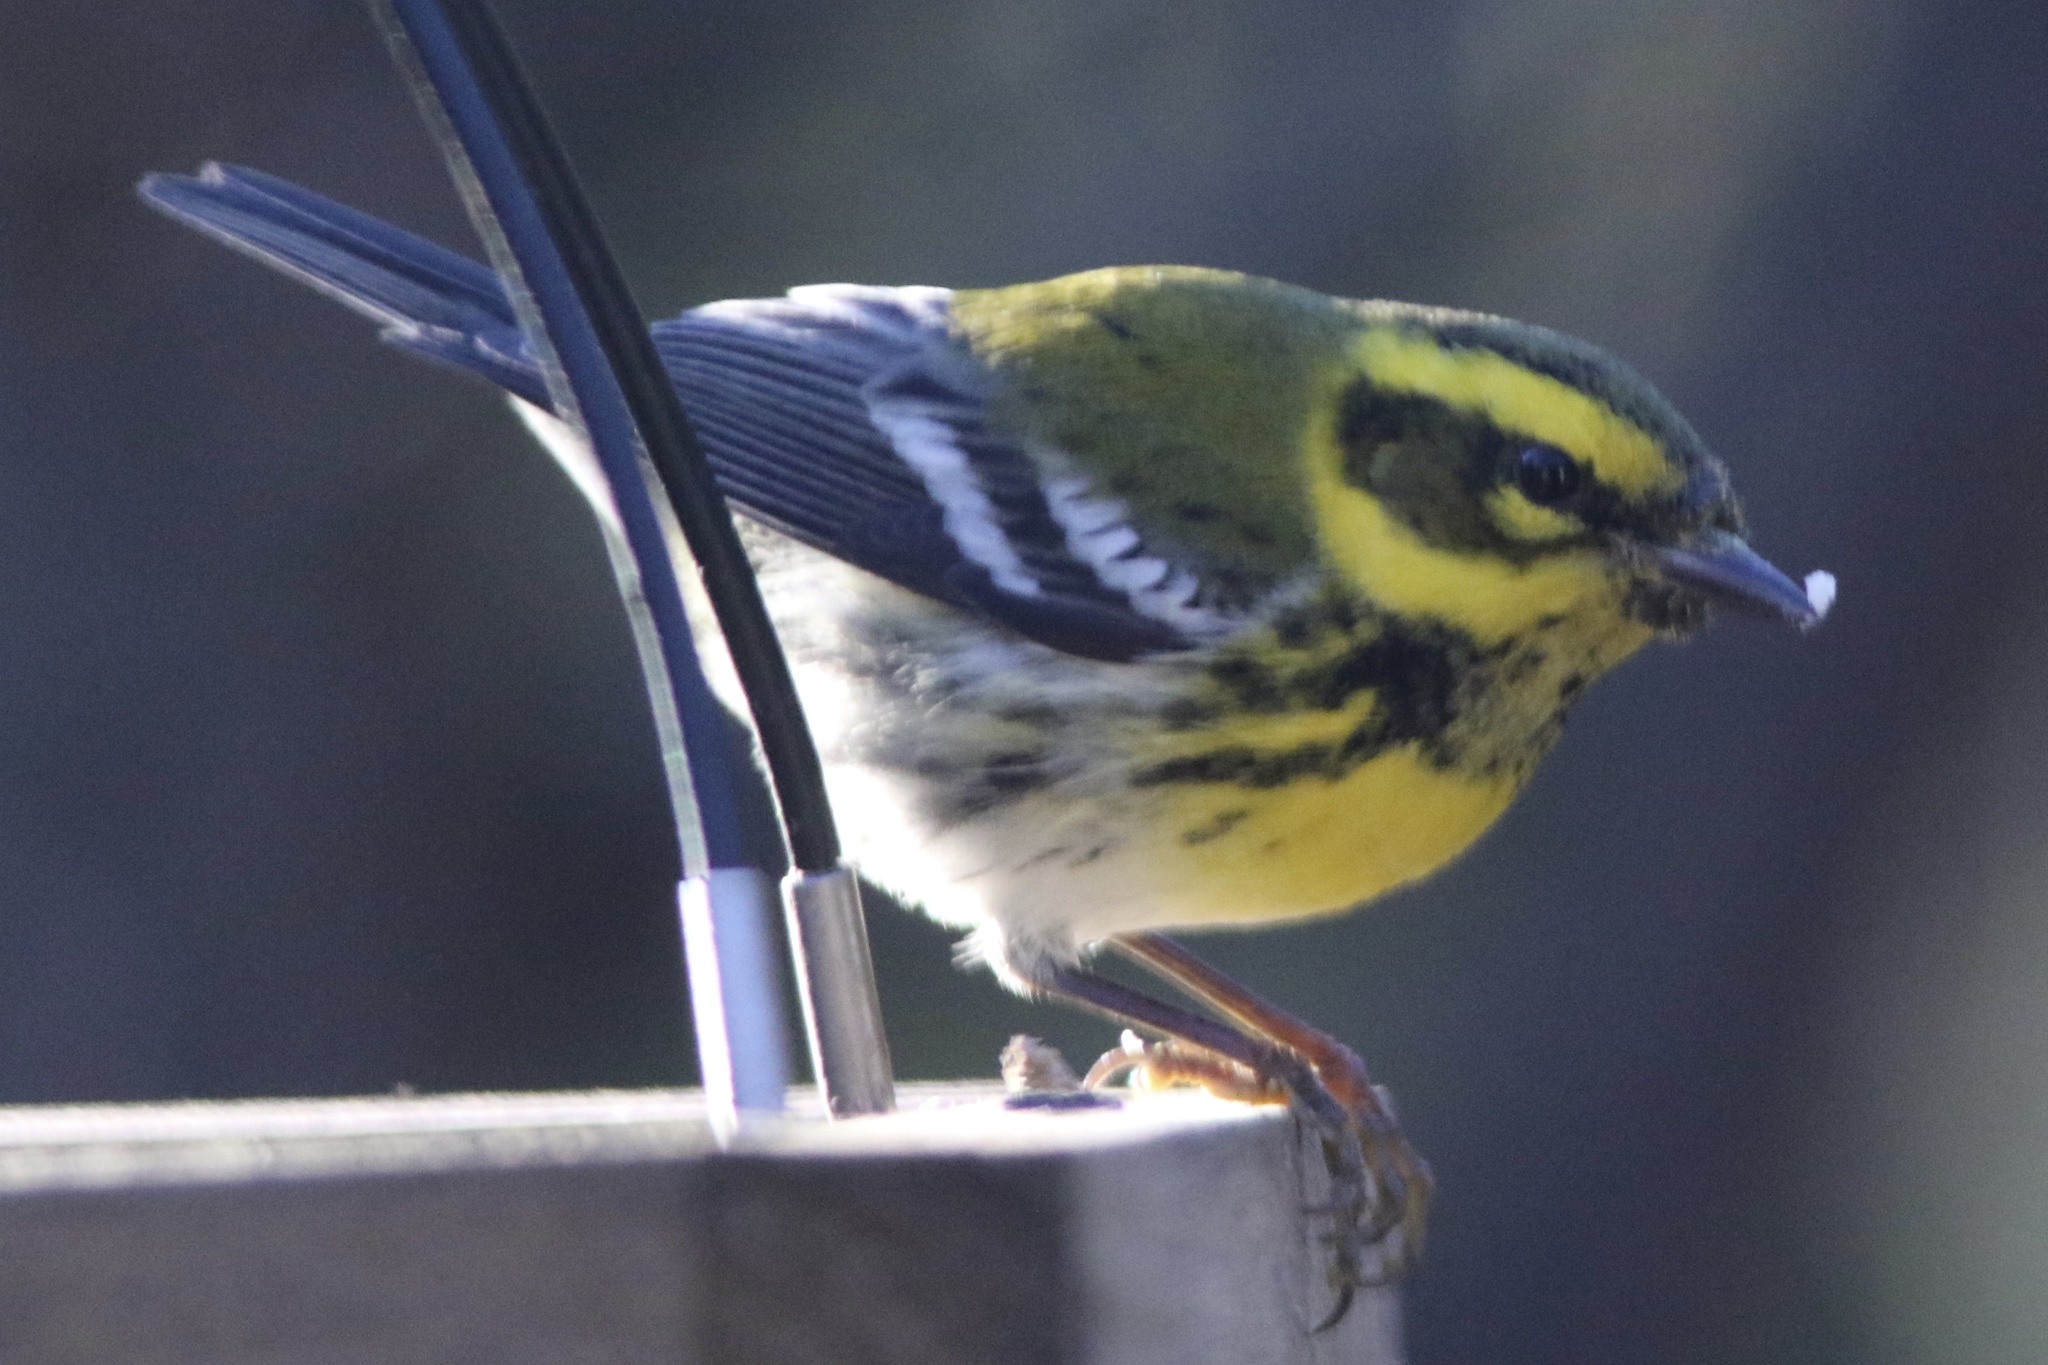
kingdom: Animalia
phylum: Chordata
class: Aves
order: Passeriformes
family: Parulidae
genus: Setophaga
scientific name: Setophaga townsendi
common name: Townsend's warbler
